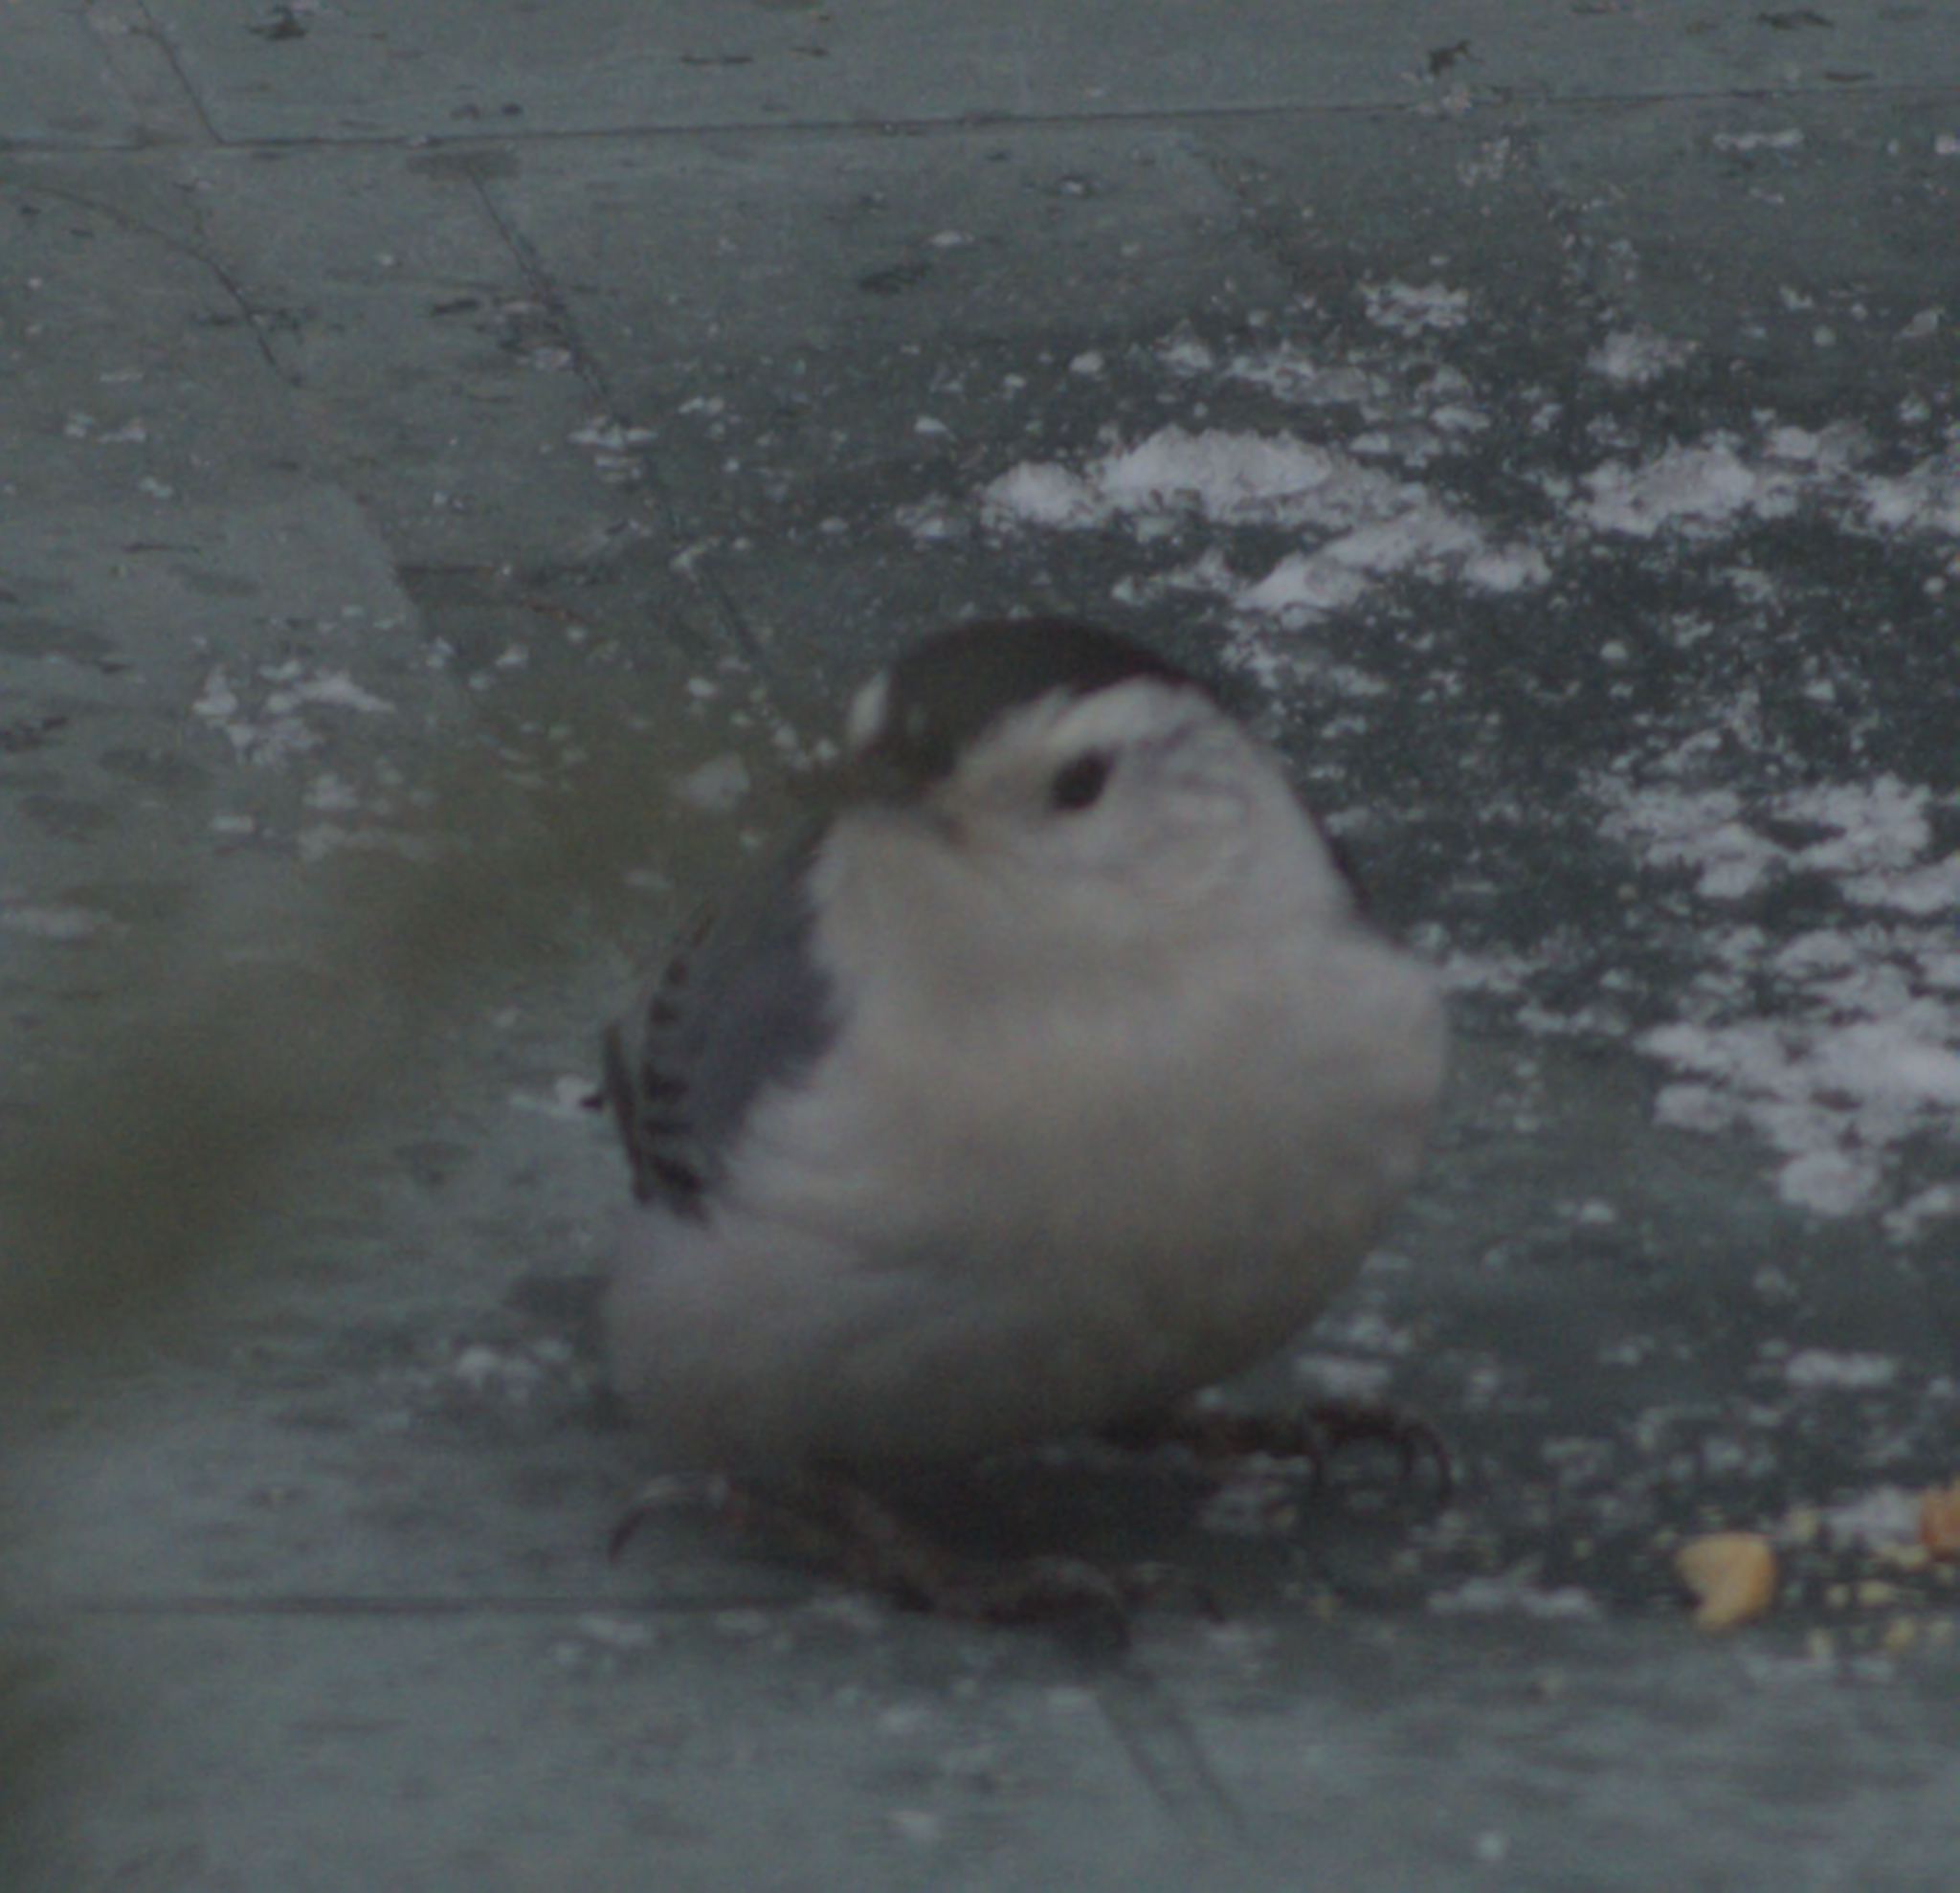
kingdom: Animalia
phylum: Chordata
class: Aves
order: Passeriformes
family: Sittidae
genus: Sitta
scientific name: Sitta carolinensis
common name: White-breasted nuthatch
